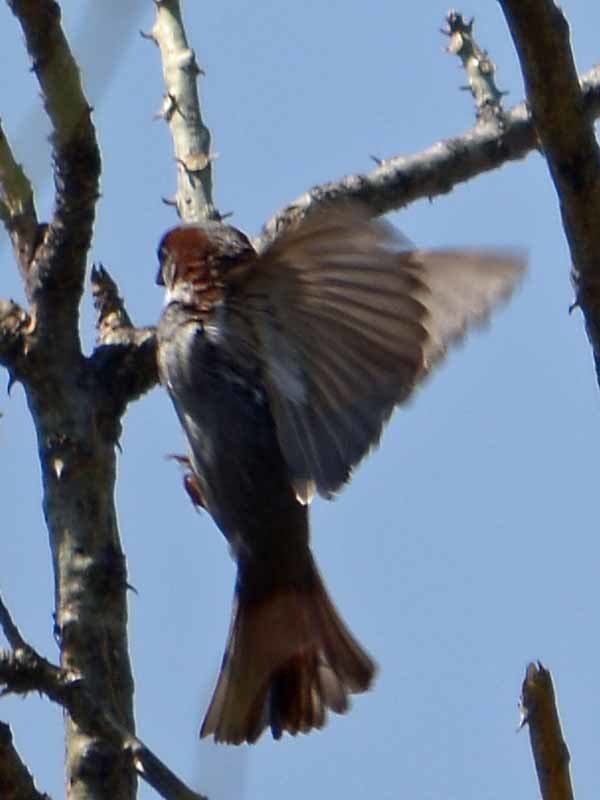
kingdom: Animalia
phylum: Chordata
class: Aves
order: Passeriformes
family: Passeridae
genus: Passer
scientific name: Passer domesticus
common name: House sparrow
